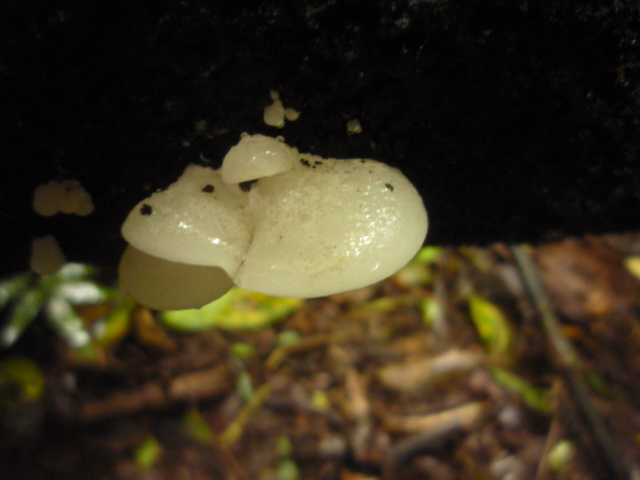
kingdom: Fungi
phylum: Basidiomycota
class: Agaricomycetes
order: Agaricales
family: Mycenaceae
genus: Favolaschia
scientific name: Favolaschia pustulosa
